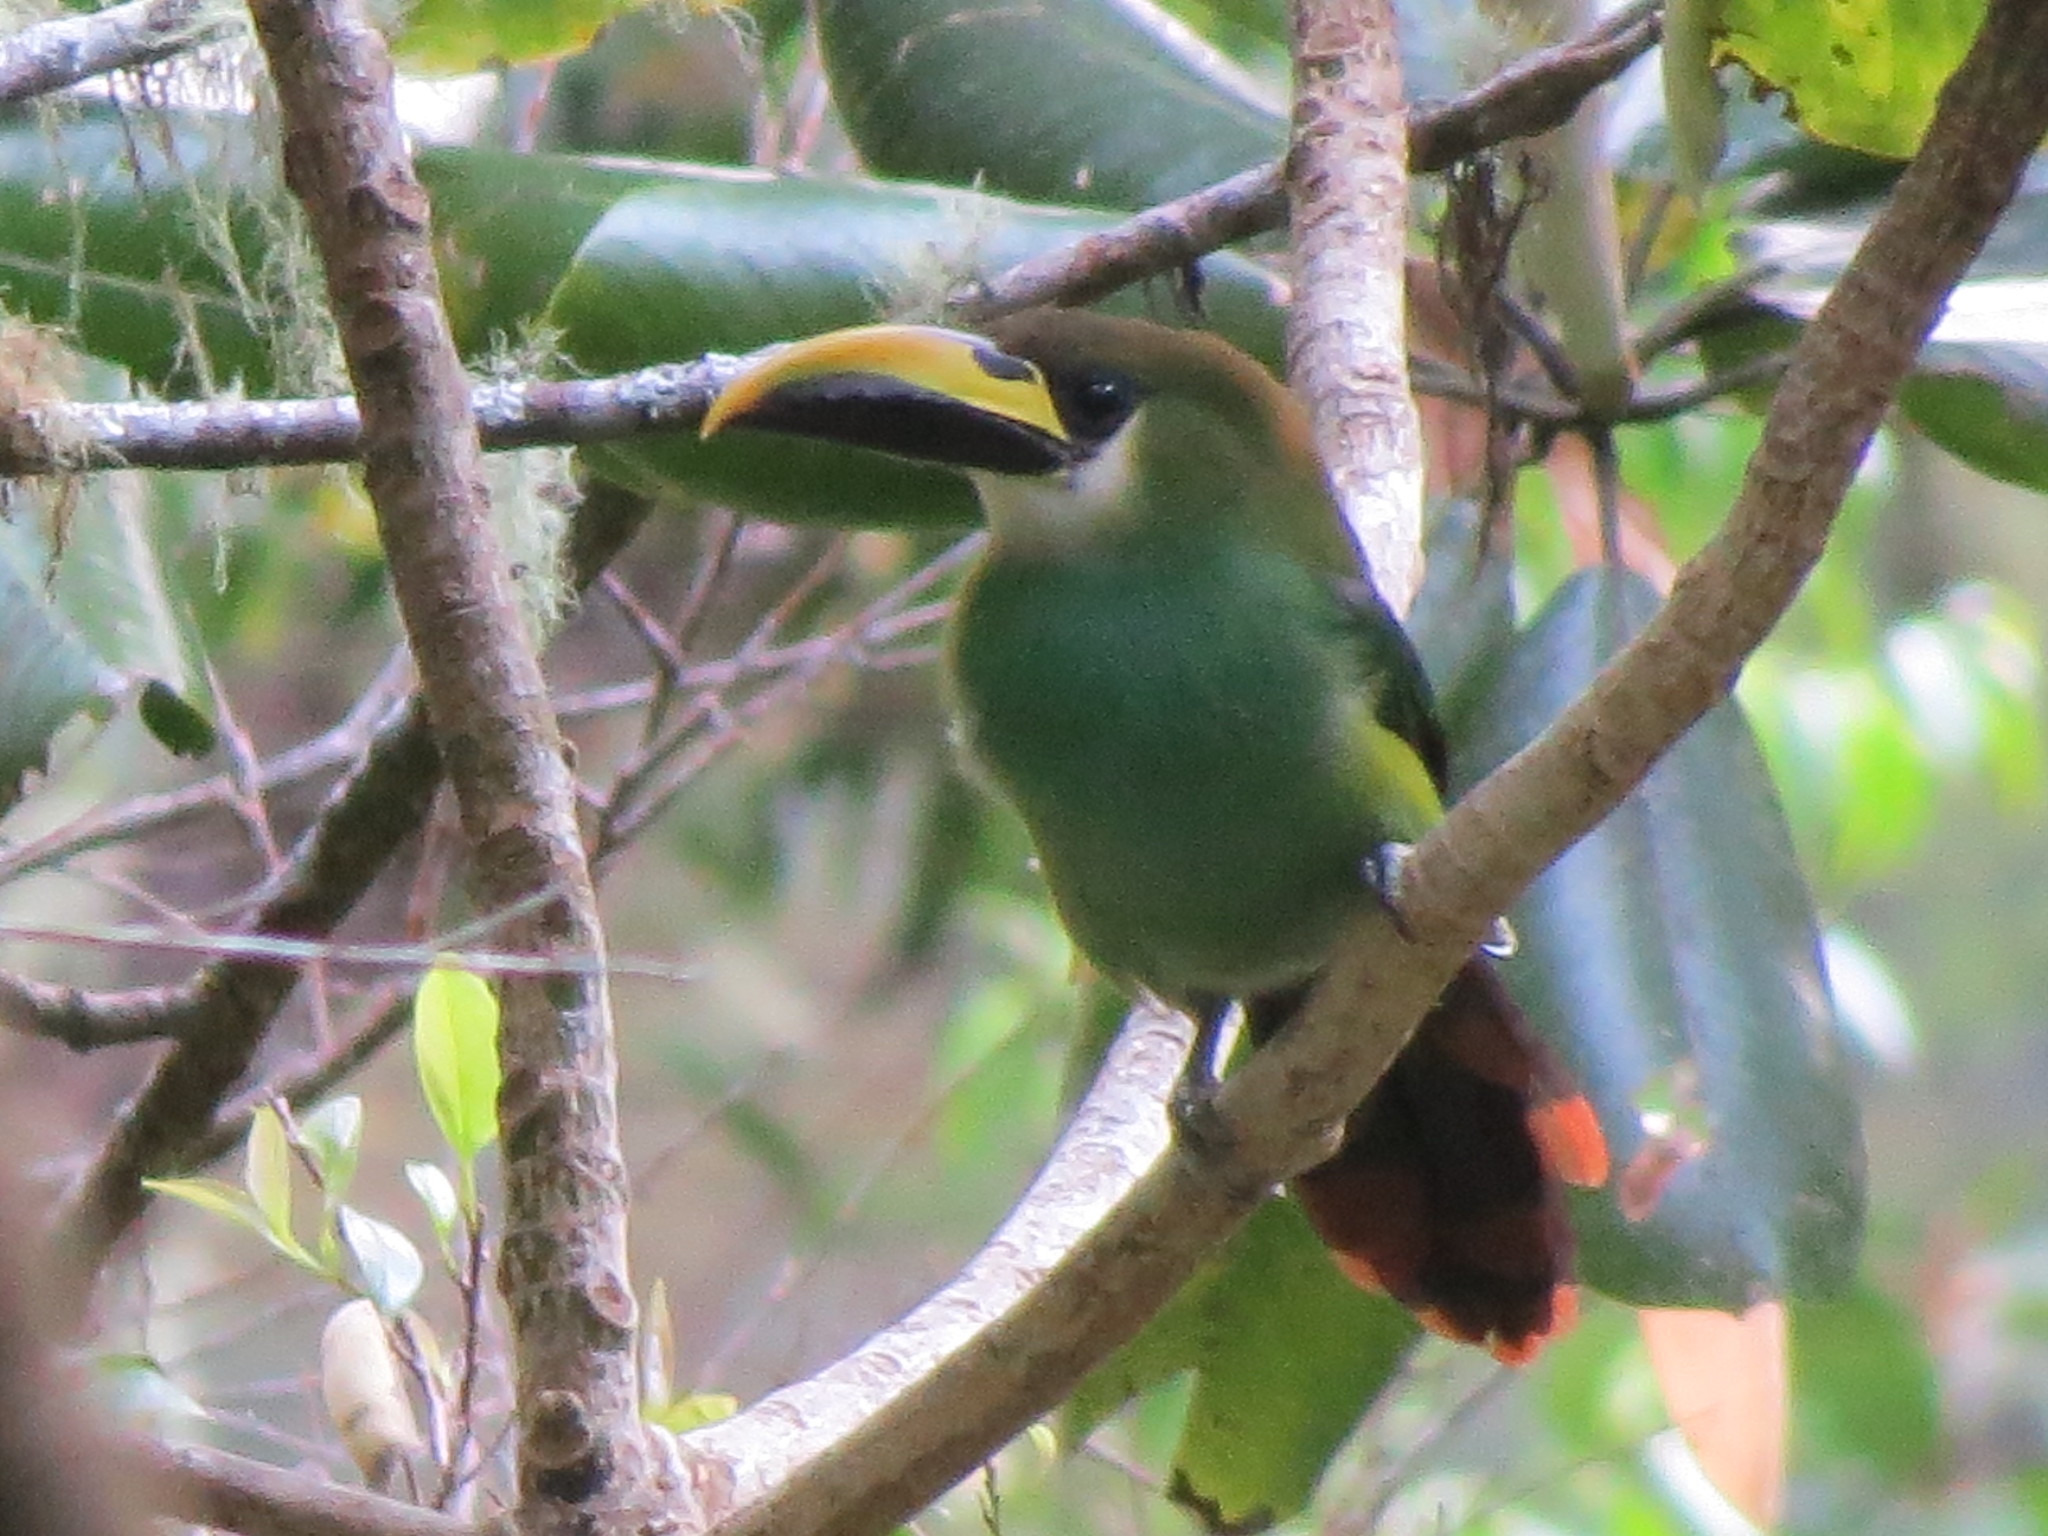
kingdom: Animalia
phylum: Chordata
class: Aves
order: Piciformes
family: Ramphastidae
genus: Aulacorhynchus
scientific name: Aulacorhynchus prasinus
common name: Emerald toucanet
